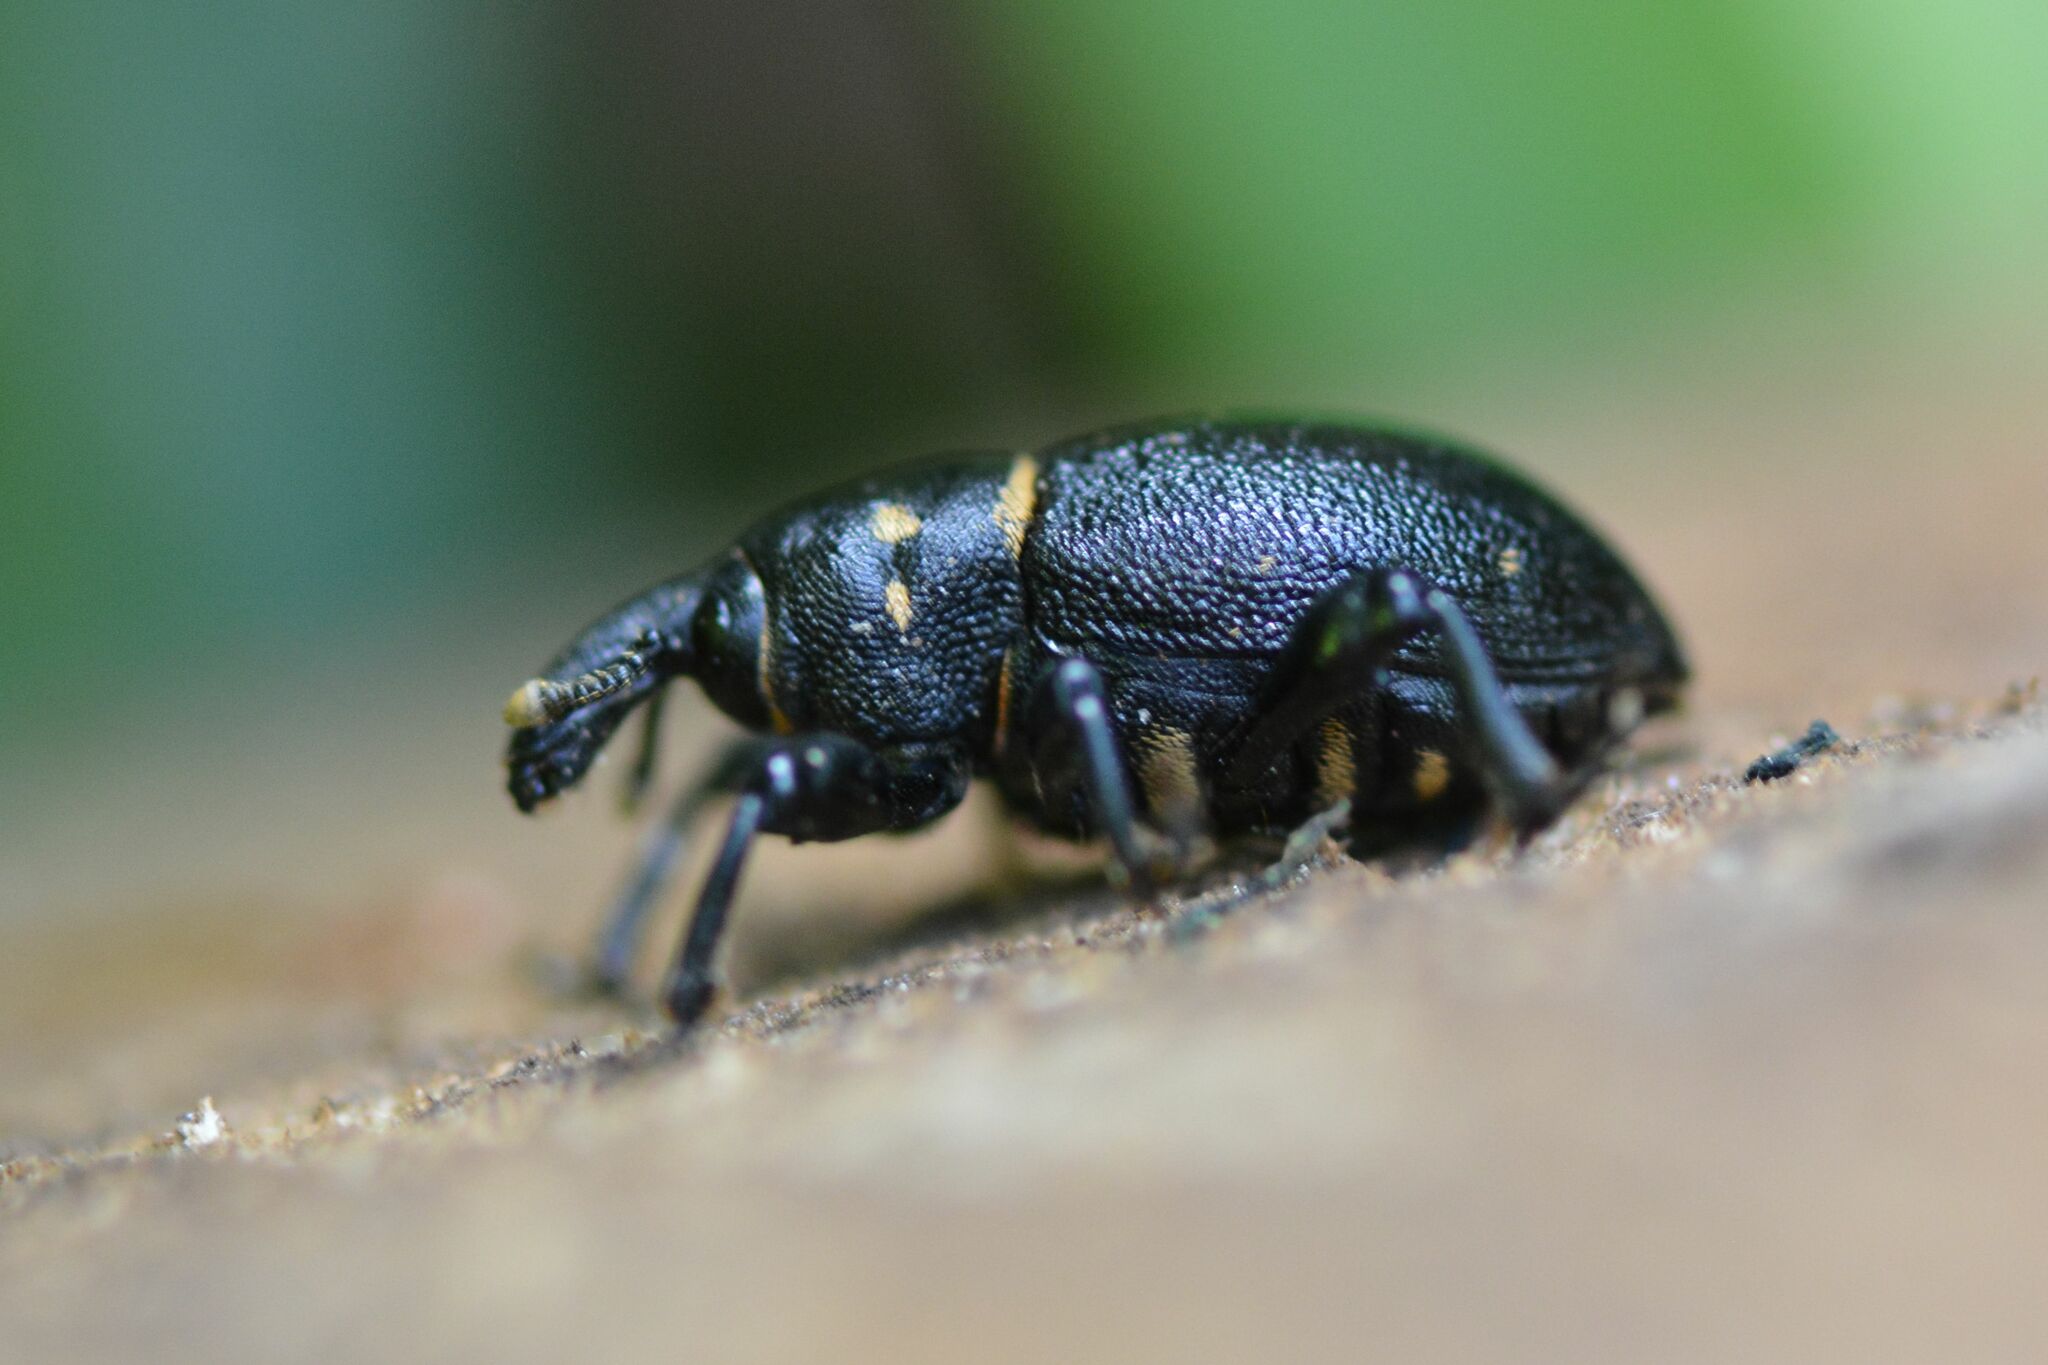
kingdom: Animalia
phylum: Arthropoda
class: Insecta
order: Coleoptera
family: Curculionidae
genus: Liparus
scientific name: Liparus coronatus
